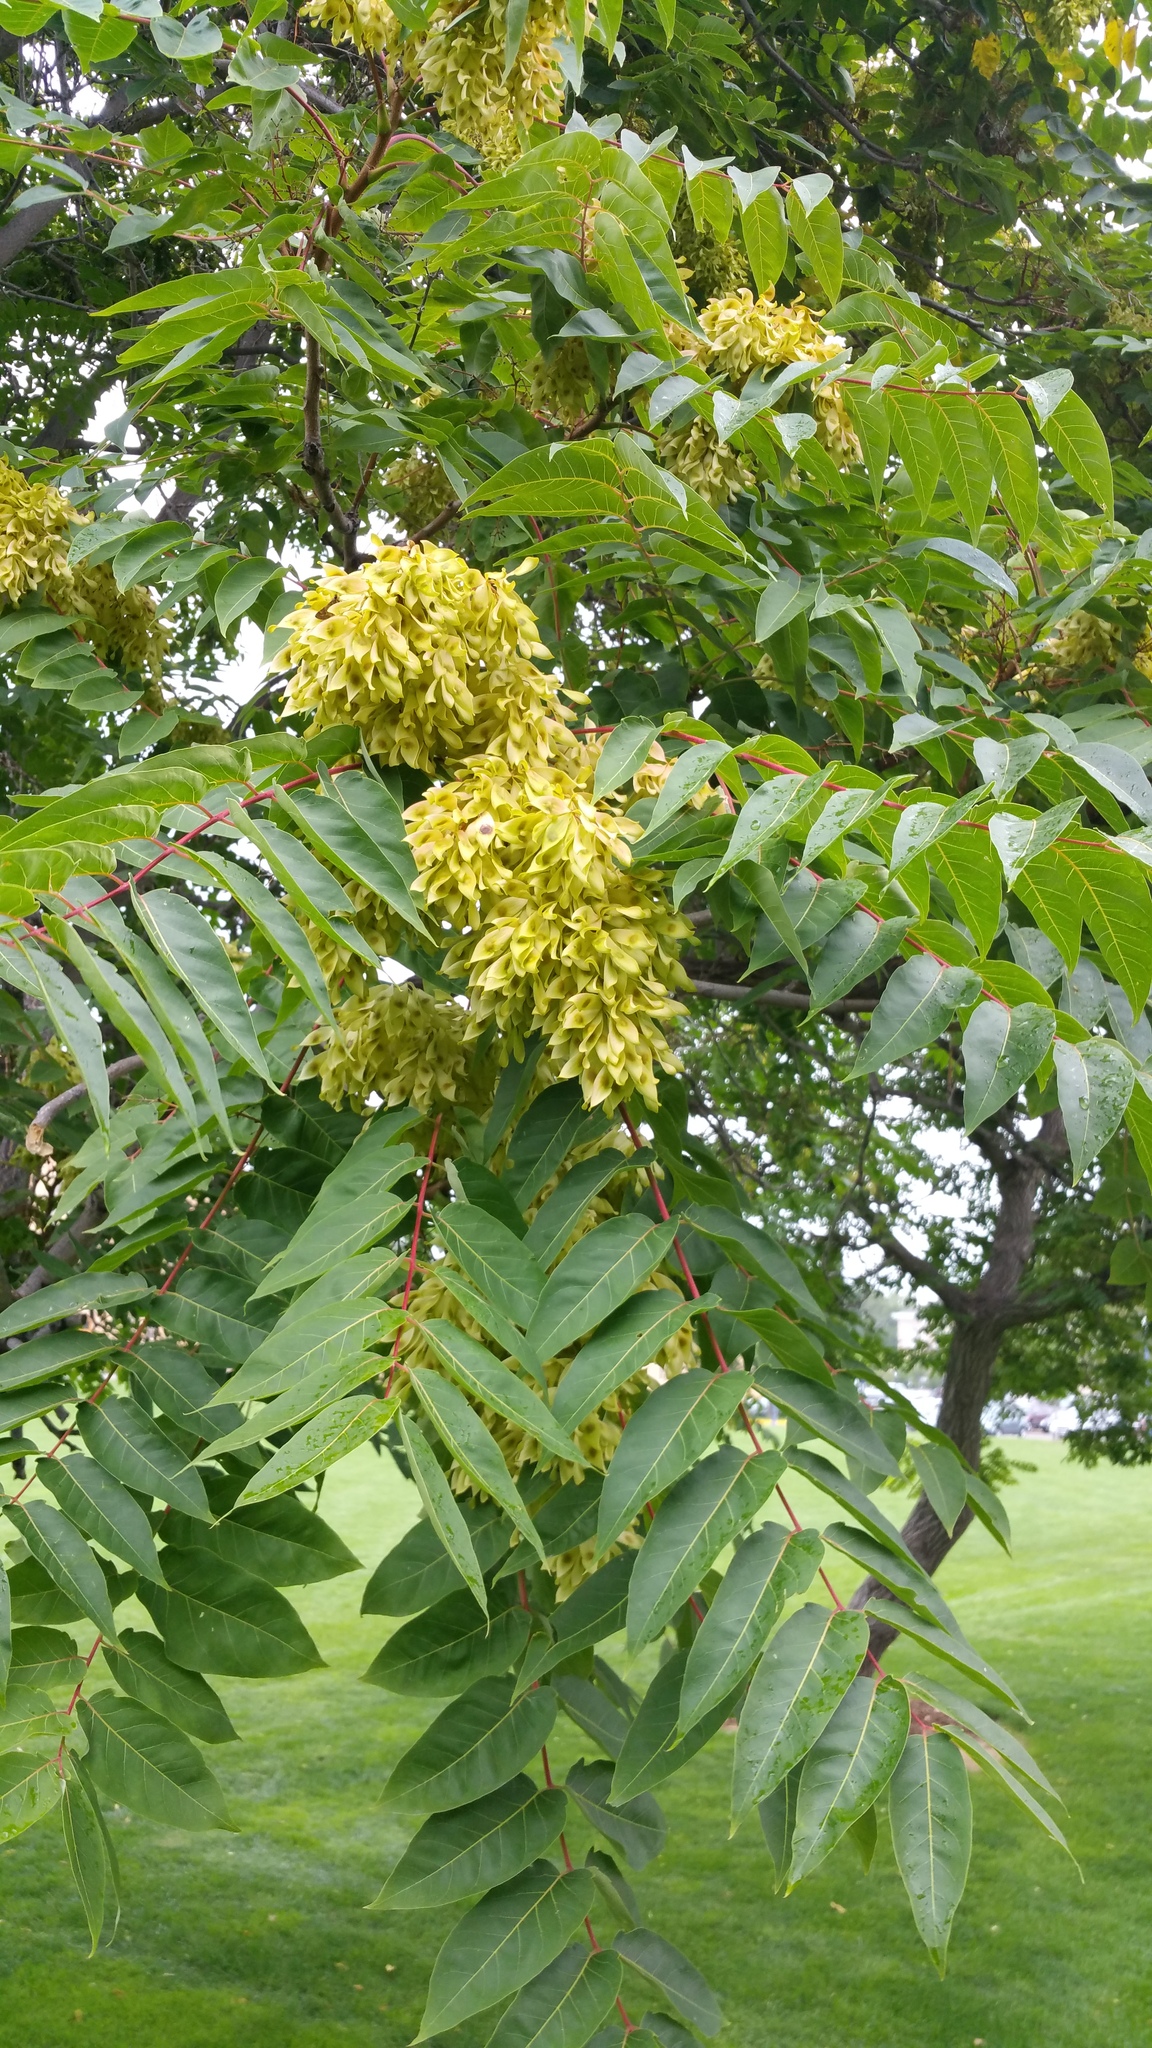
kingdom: Plantae
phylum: Tracheophyta
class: Magnoliopsida
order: Sapindales
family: Simaroubaceae
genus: Ailanthus
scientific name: Ailanthus altissima
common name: Tree-of-heaven
